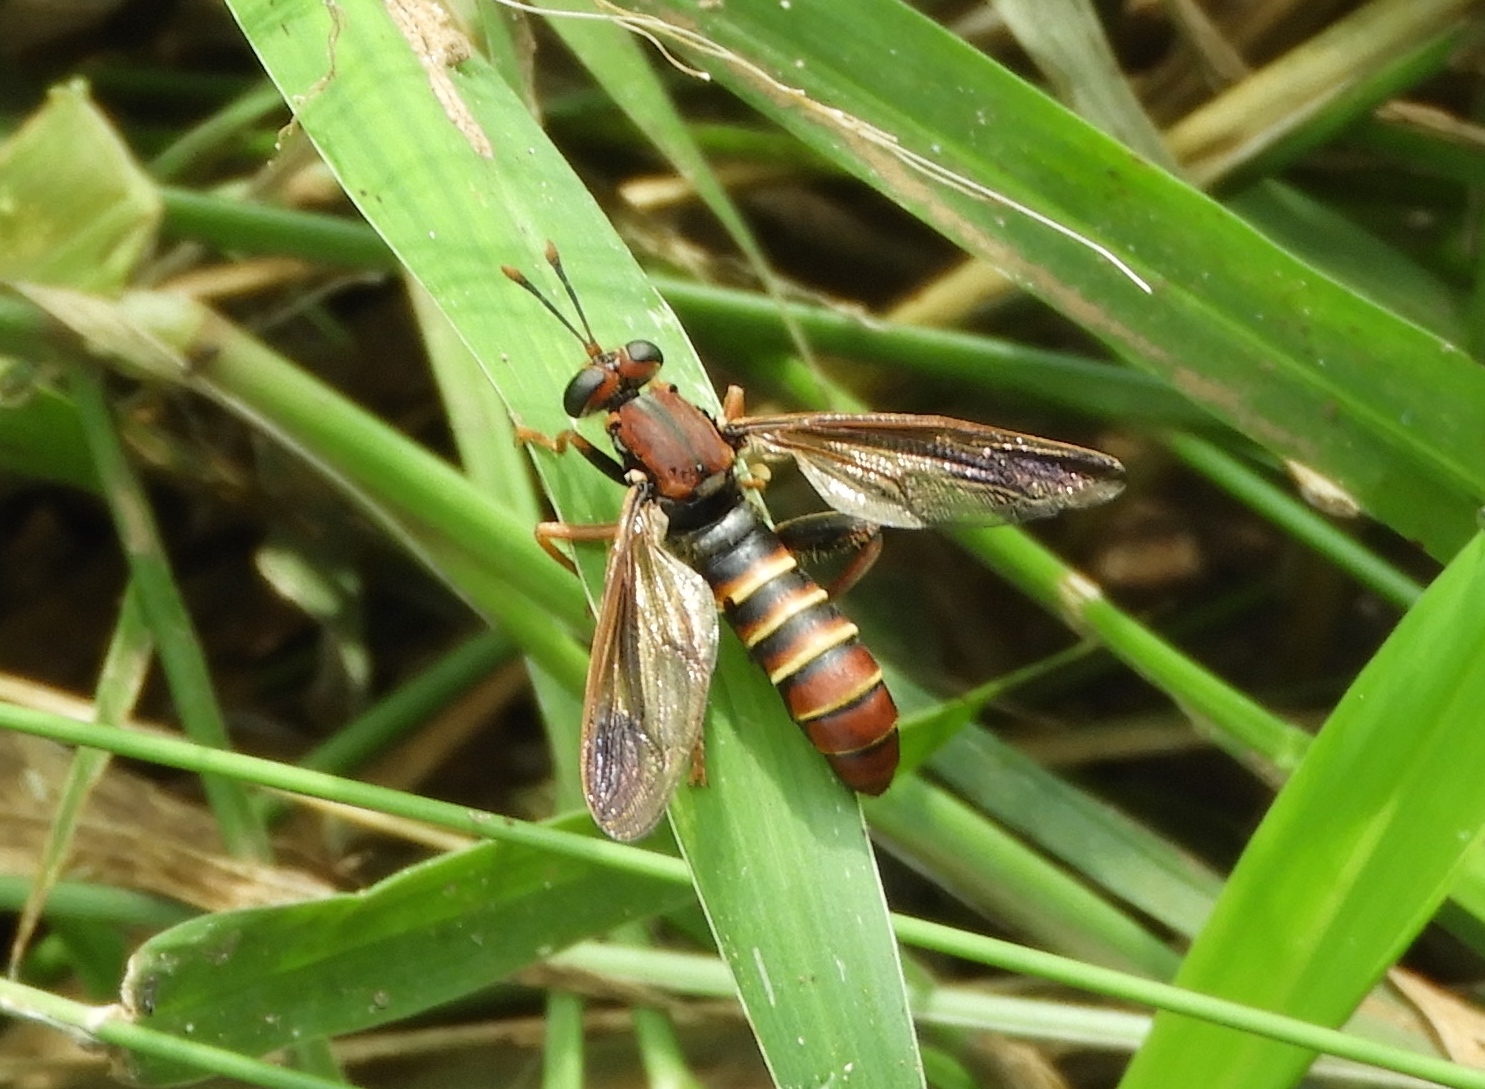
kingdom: Animalia
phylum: Arthropoda
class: Insecta
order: Diptera
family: Mydidae
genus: Mydas
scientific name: Mydas annularis
